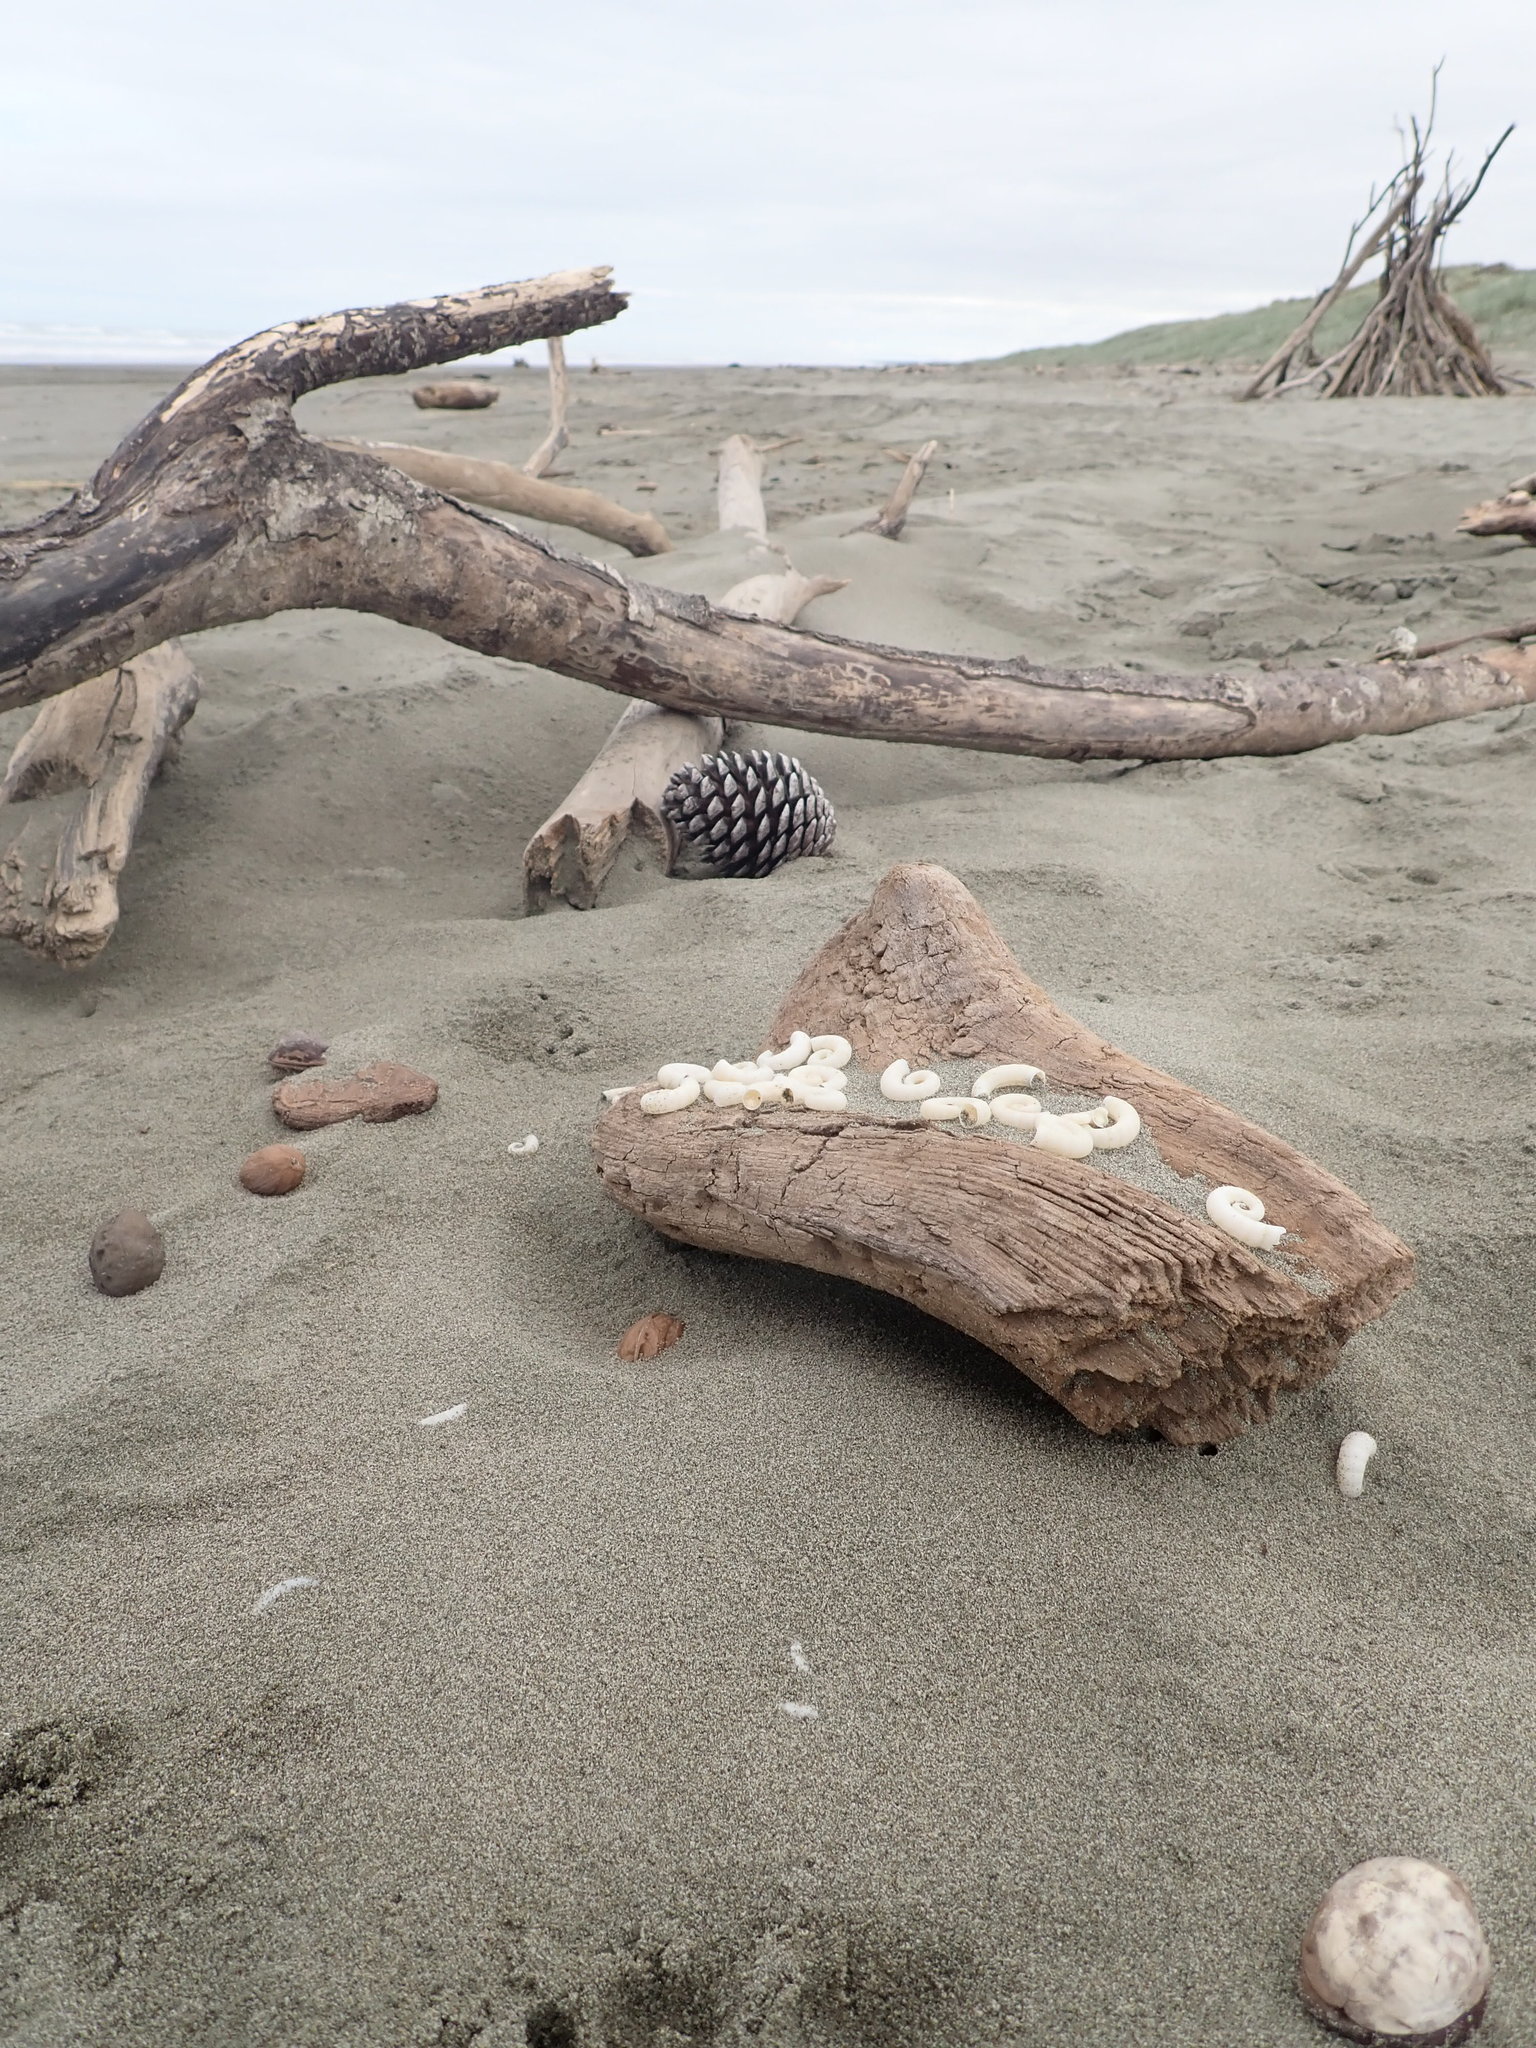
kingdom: Animalia
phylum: Mollusca
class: Cephalopoda
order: Spirulida
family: Spirulidae
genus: Spirula
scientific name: Spirula spirula
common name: Ram's horn squid
